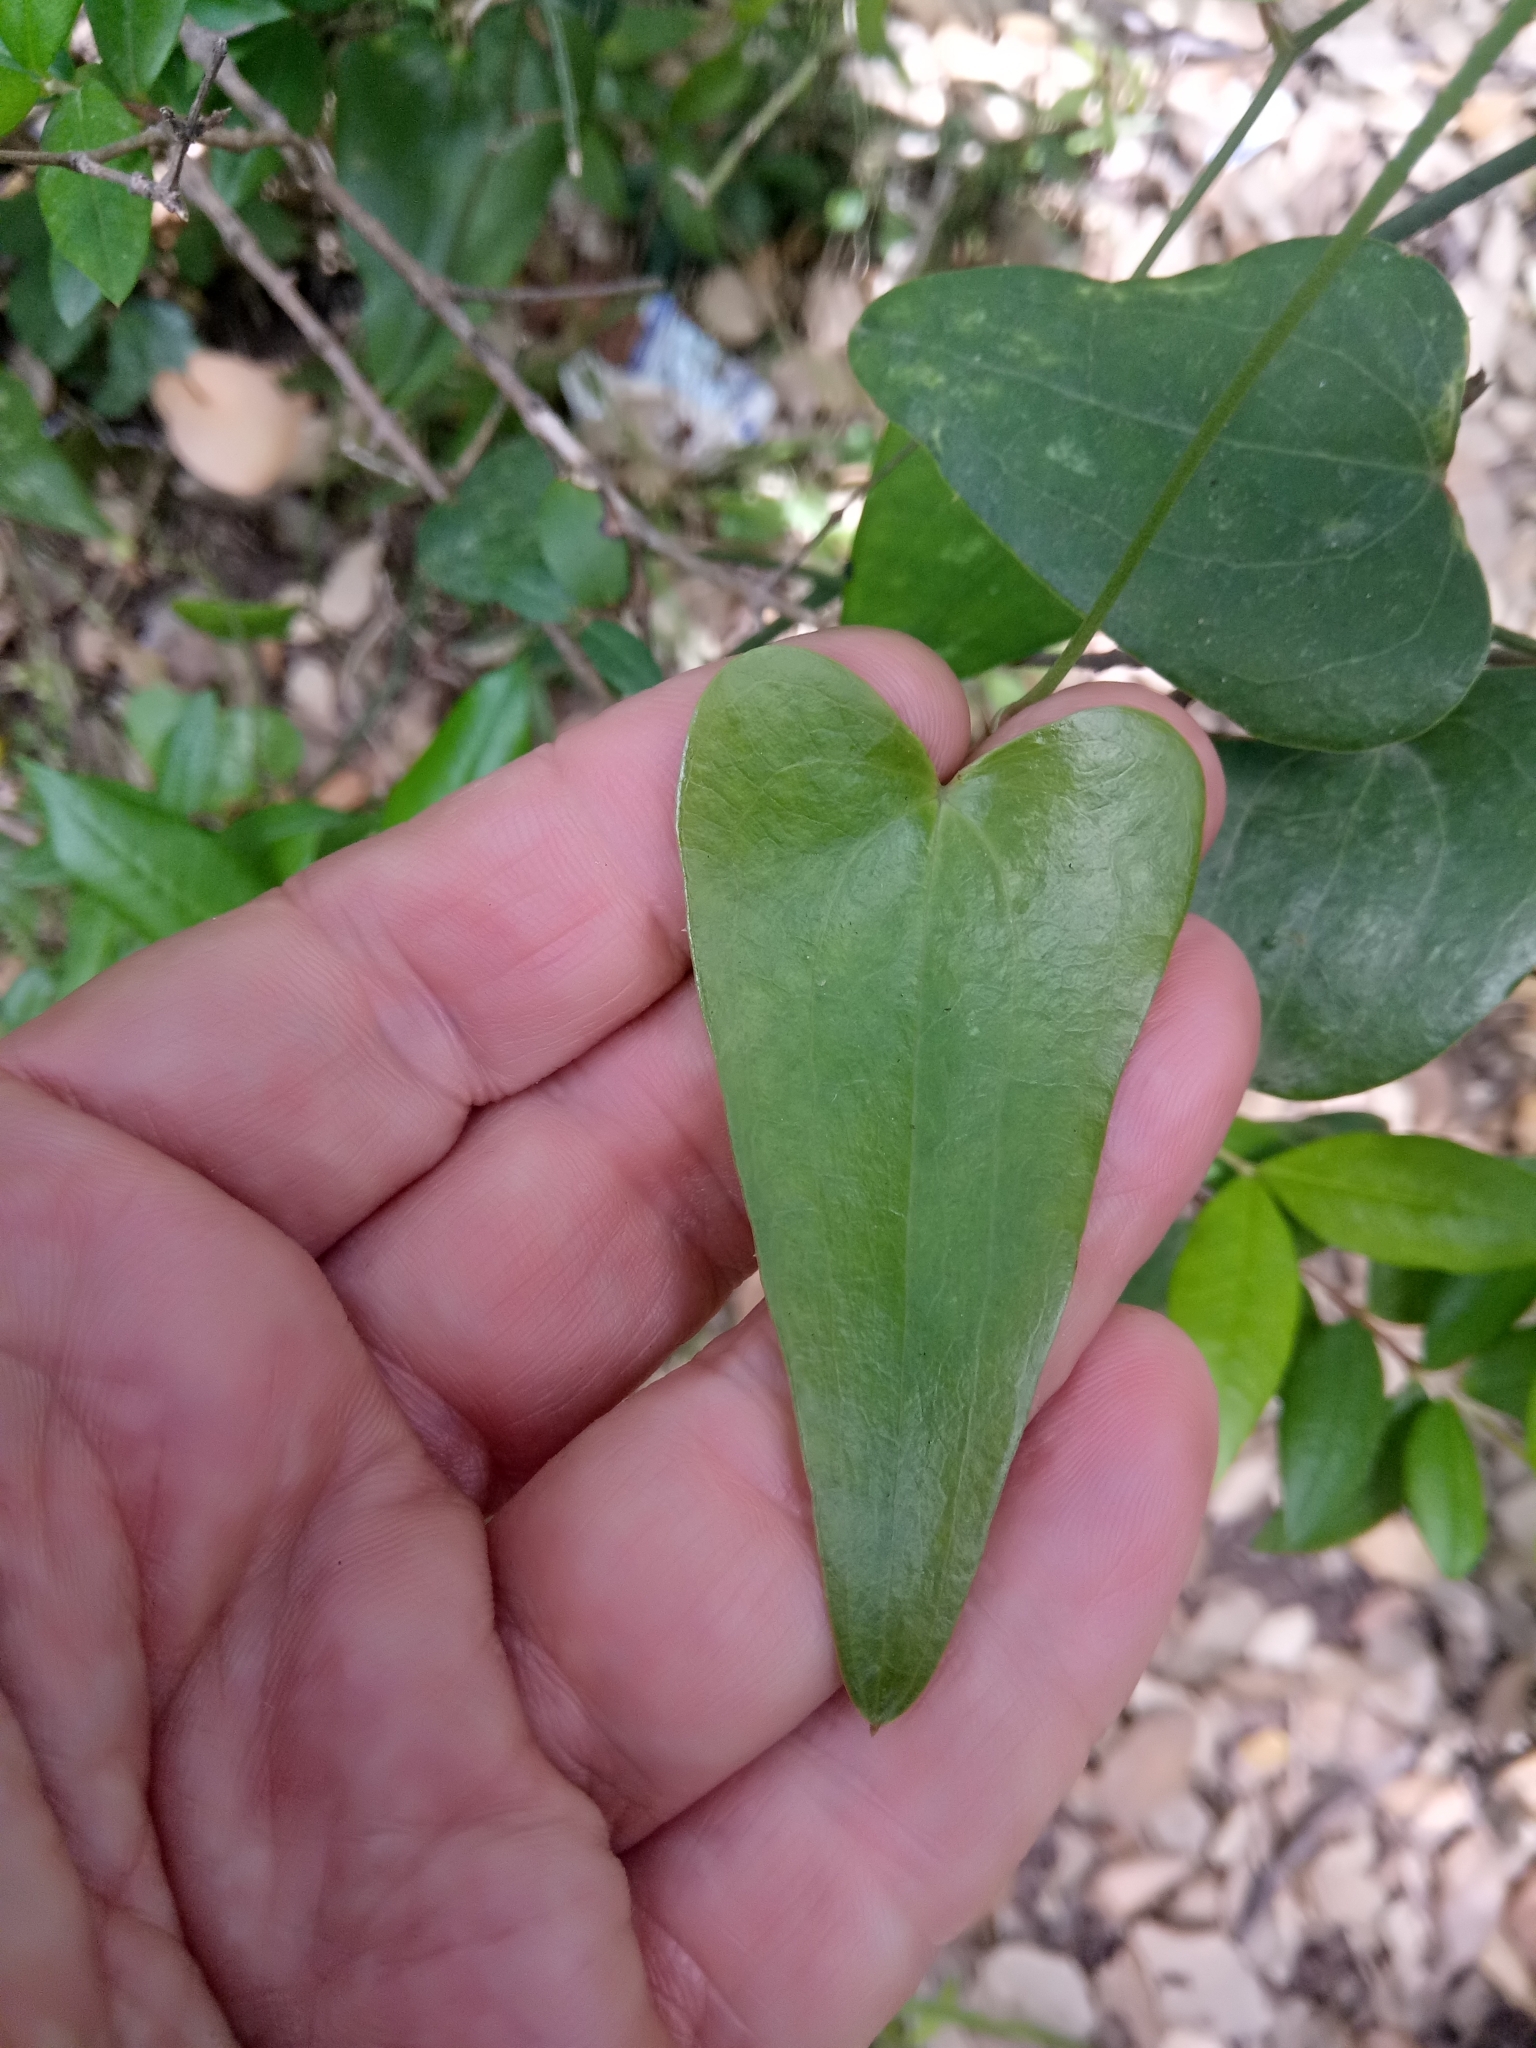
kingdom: Plantae
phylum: Tracheophyta
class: Liliopsida
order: Liliales
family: Smilacaceae
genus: Smilax
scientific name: Smilax aspera
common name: Common smilax
